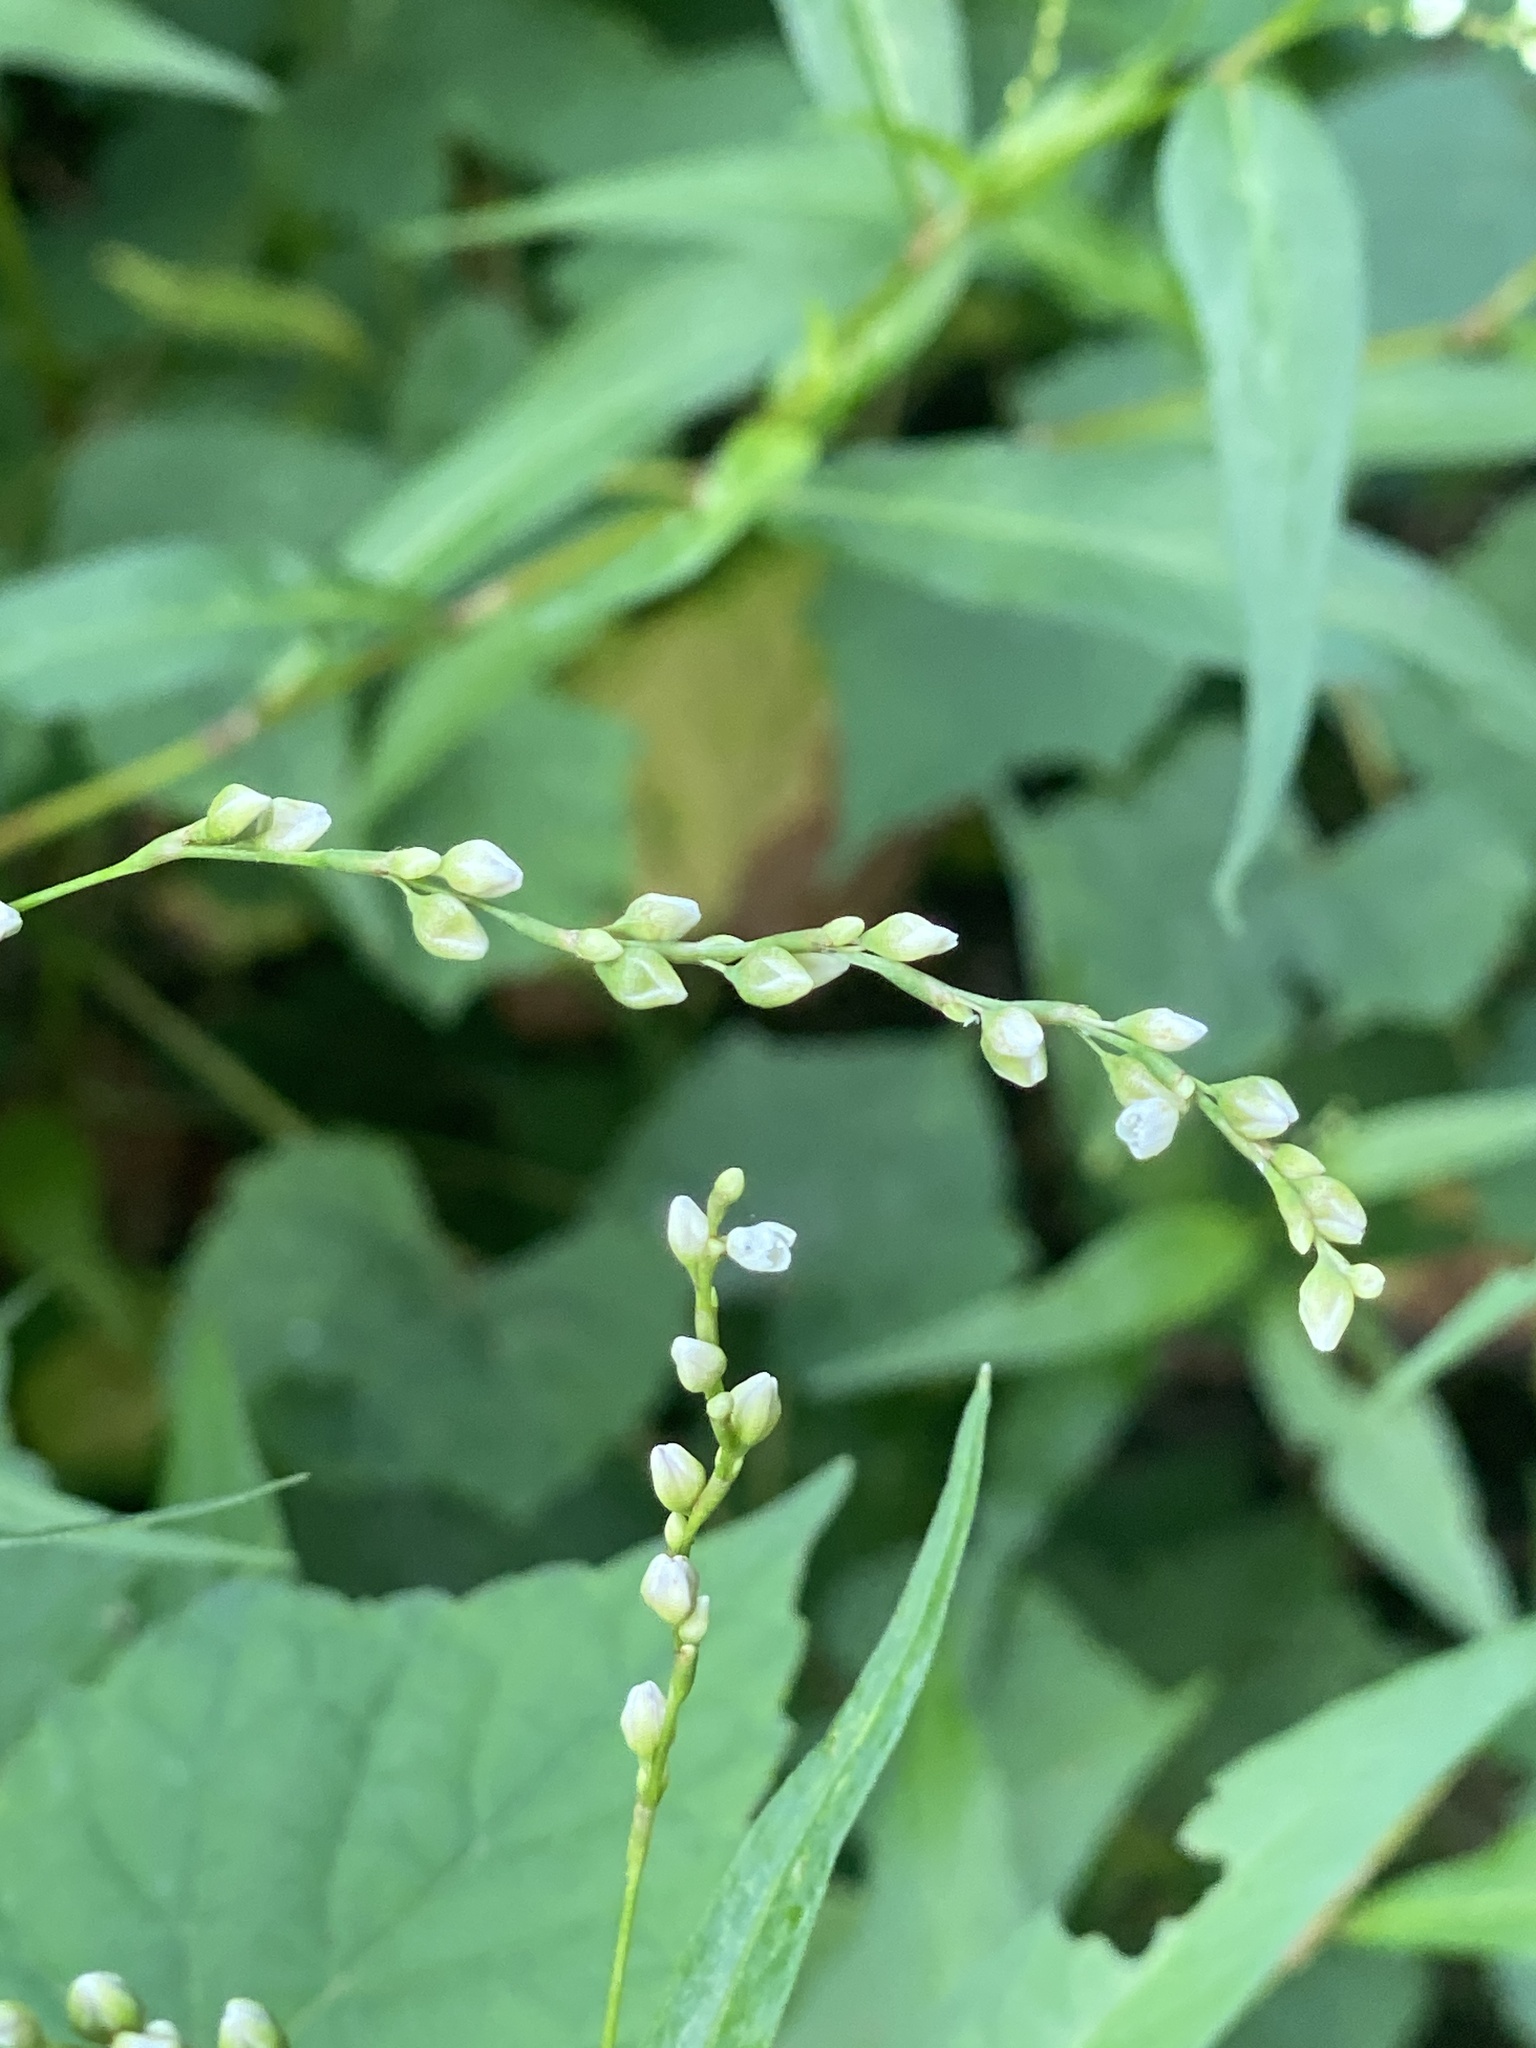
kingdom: Plantae
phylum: Tracheophyta
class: Magnoliopsida
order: Caryophyllales
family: Polygonaceae
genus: Persicaria
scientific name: Persicaria punctata
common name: Dotted smartweed
